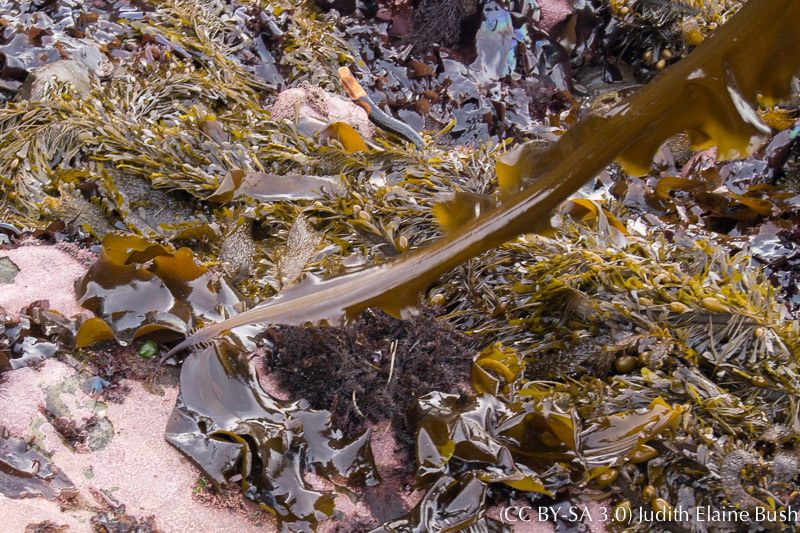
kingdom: Chromista
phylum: Ochrophyta
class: Phaeophyceae
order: Laminariales
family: Alariaceae
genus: Alaria
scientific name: Alaria marginata
